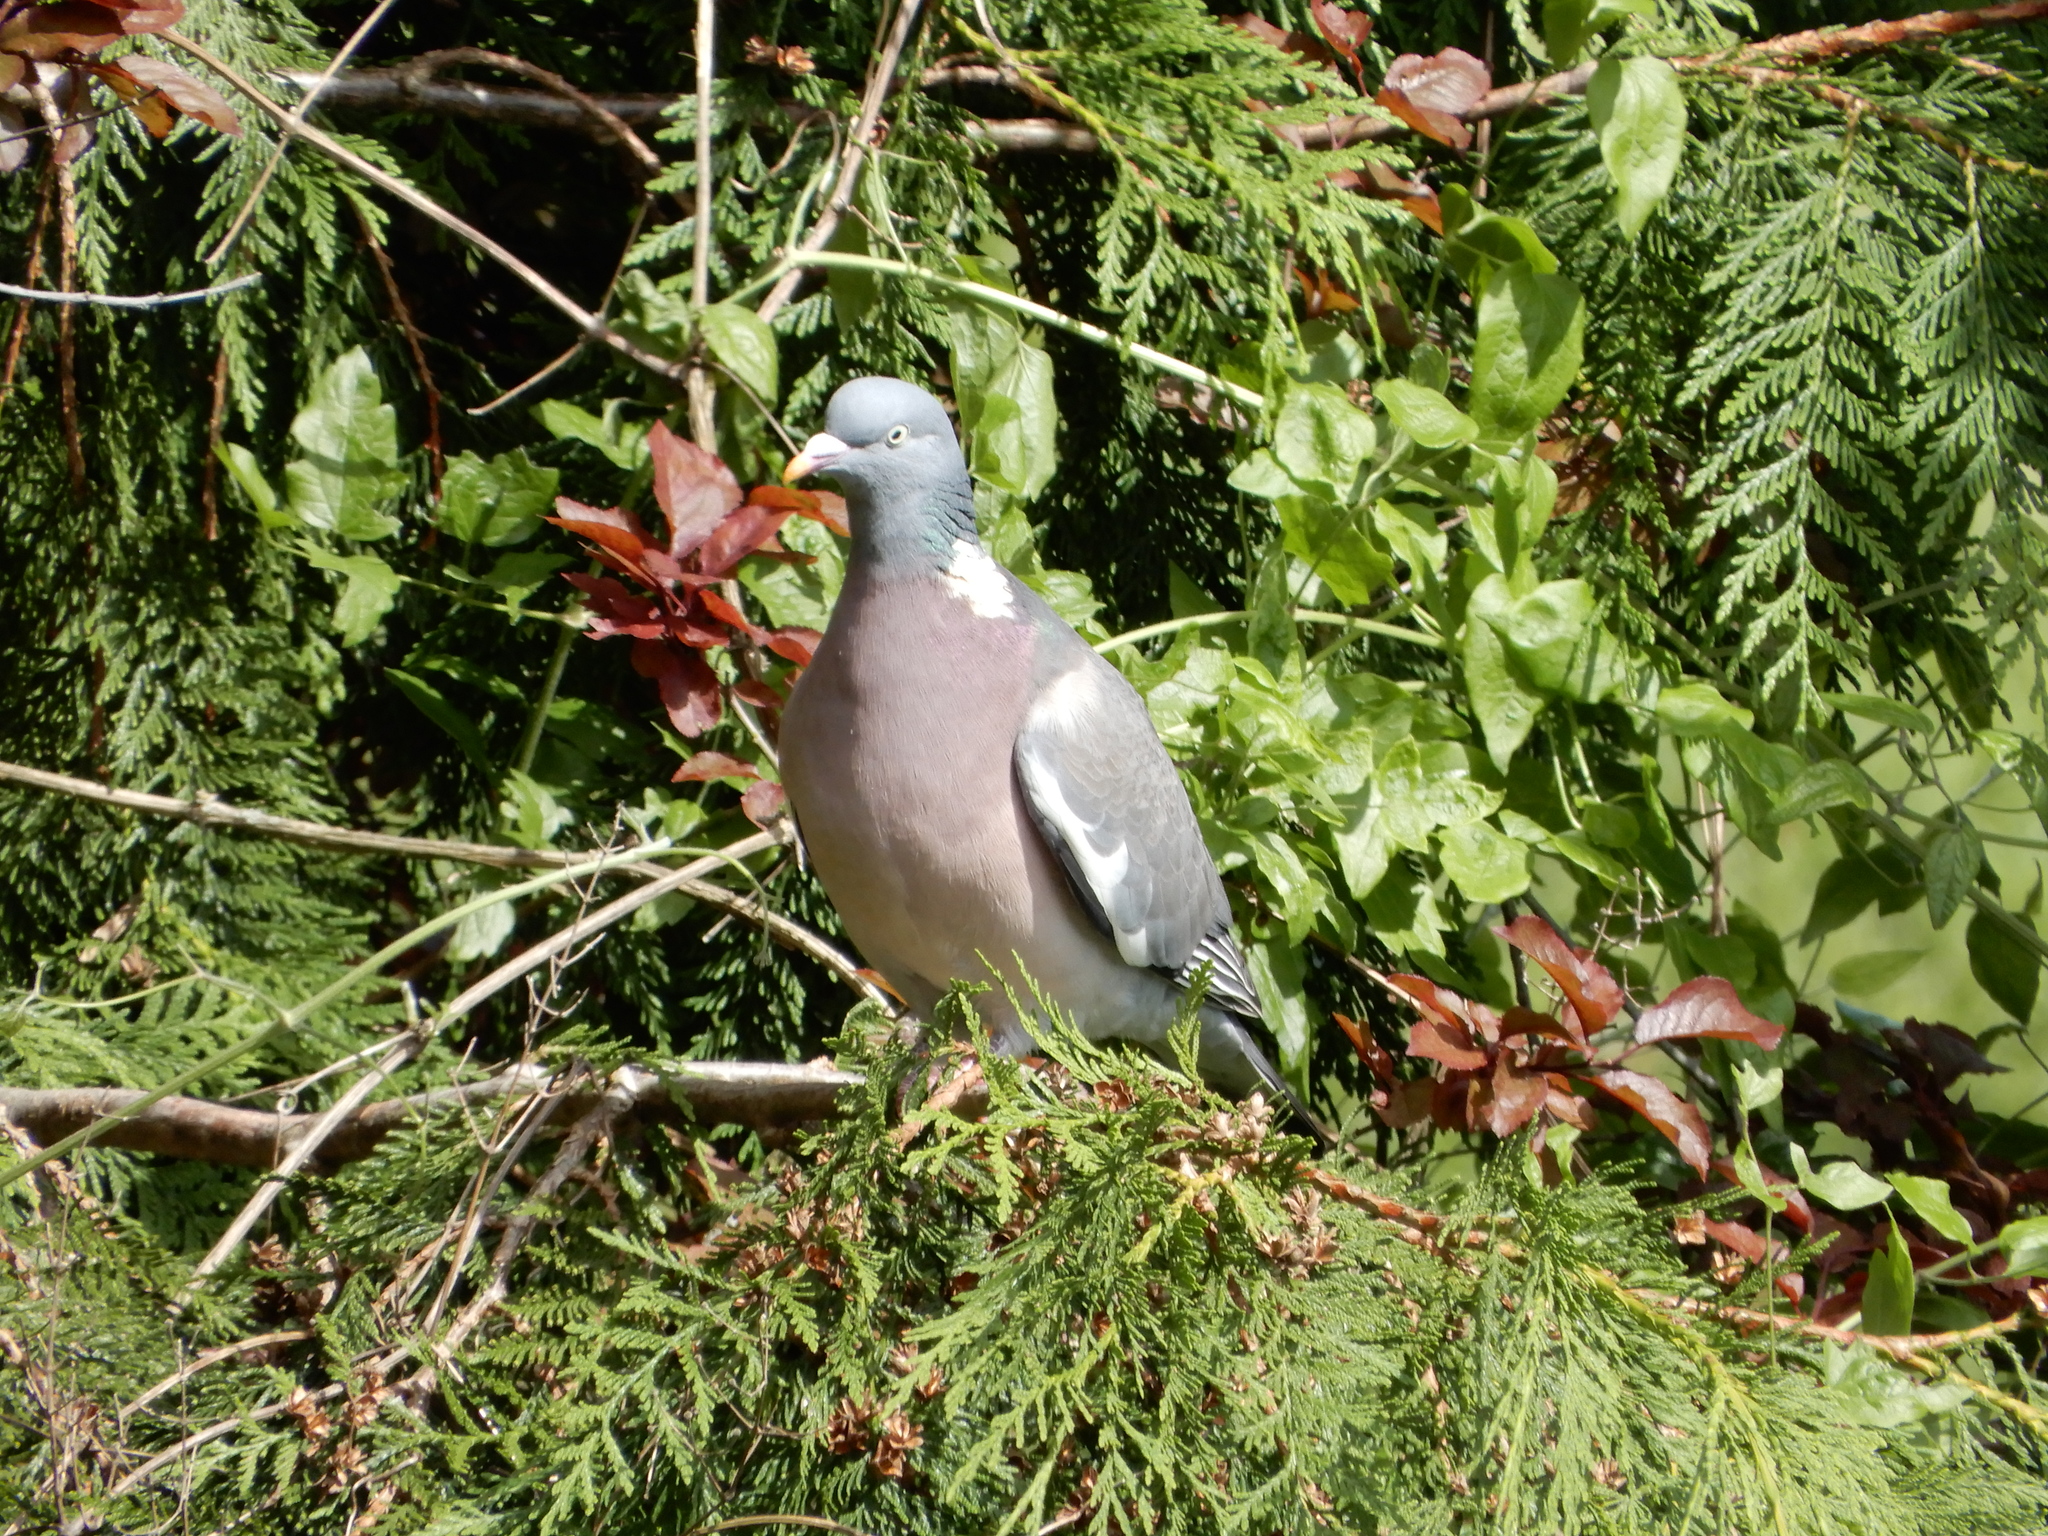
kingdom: Animalia
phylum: Chordata
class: Aves
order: Columbiformes
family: Columbidae
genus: Columba
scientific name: Columba palumbus
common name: Common wood pigeon
